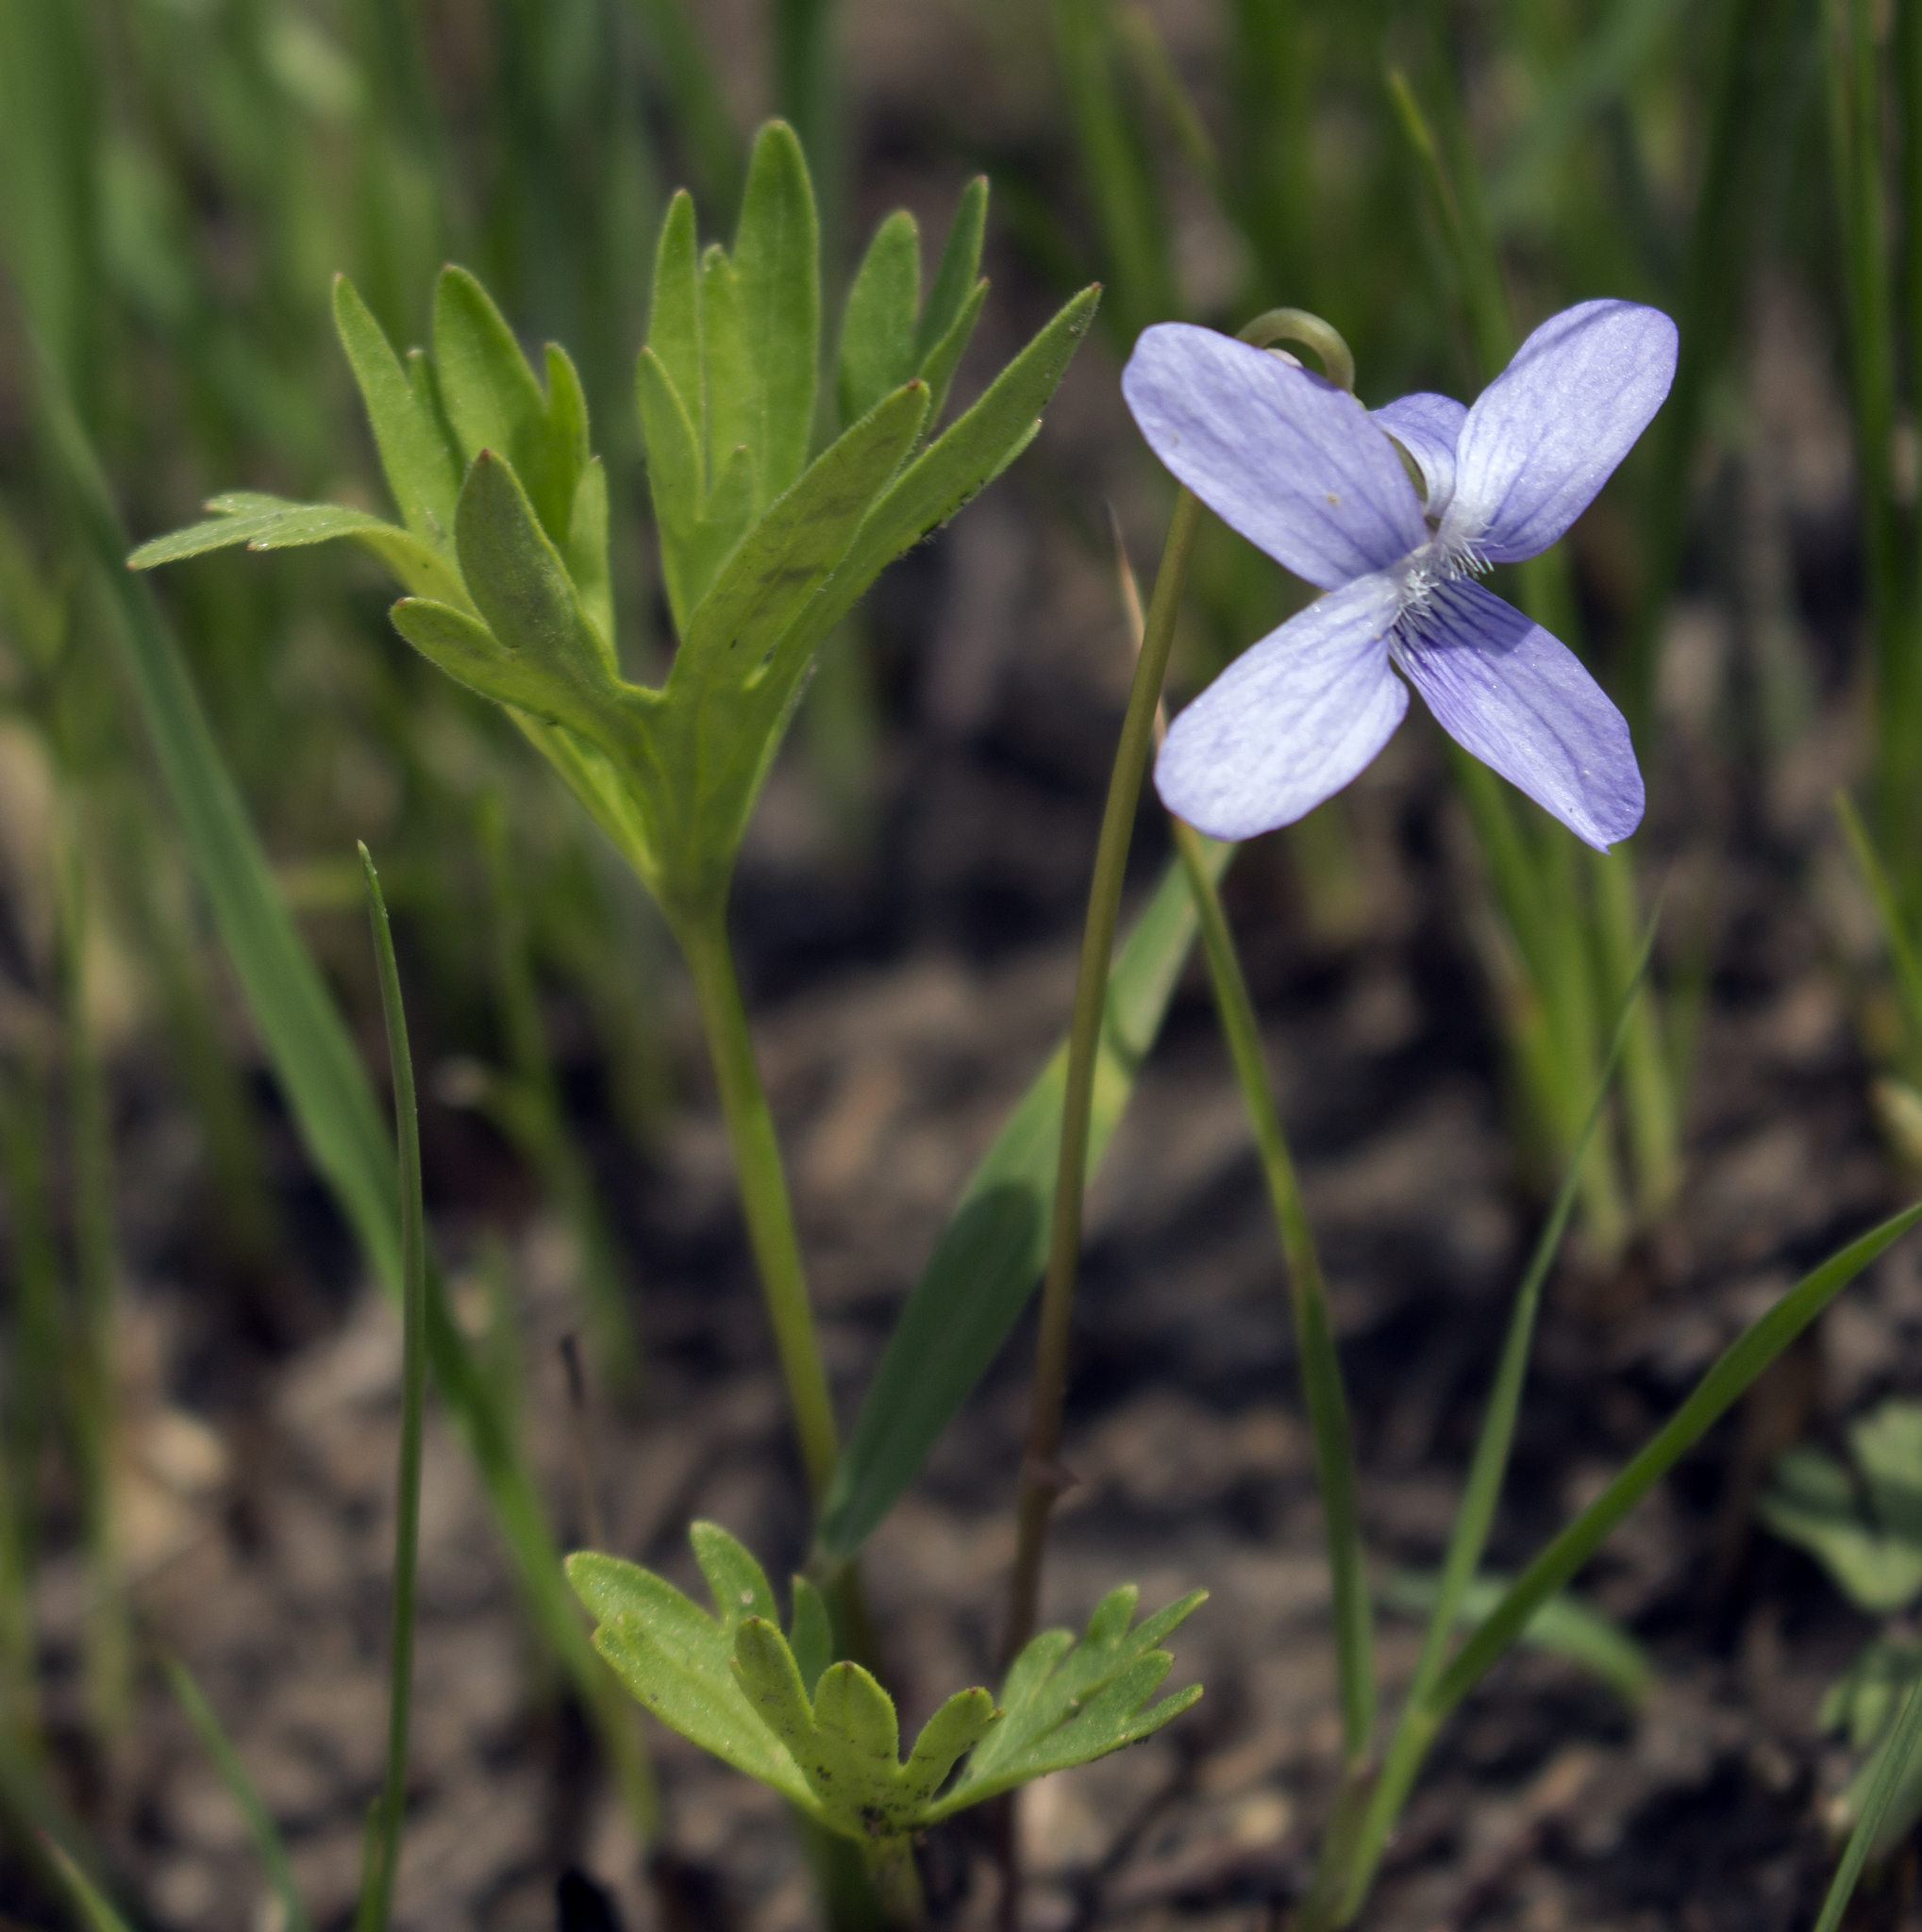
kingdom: Plantae
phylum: Tracheophyta
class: Magnoliopsida
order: Malpighiales
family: Violaceae
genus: Viola
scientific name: Viola pedatifida
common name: Prairie violet
